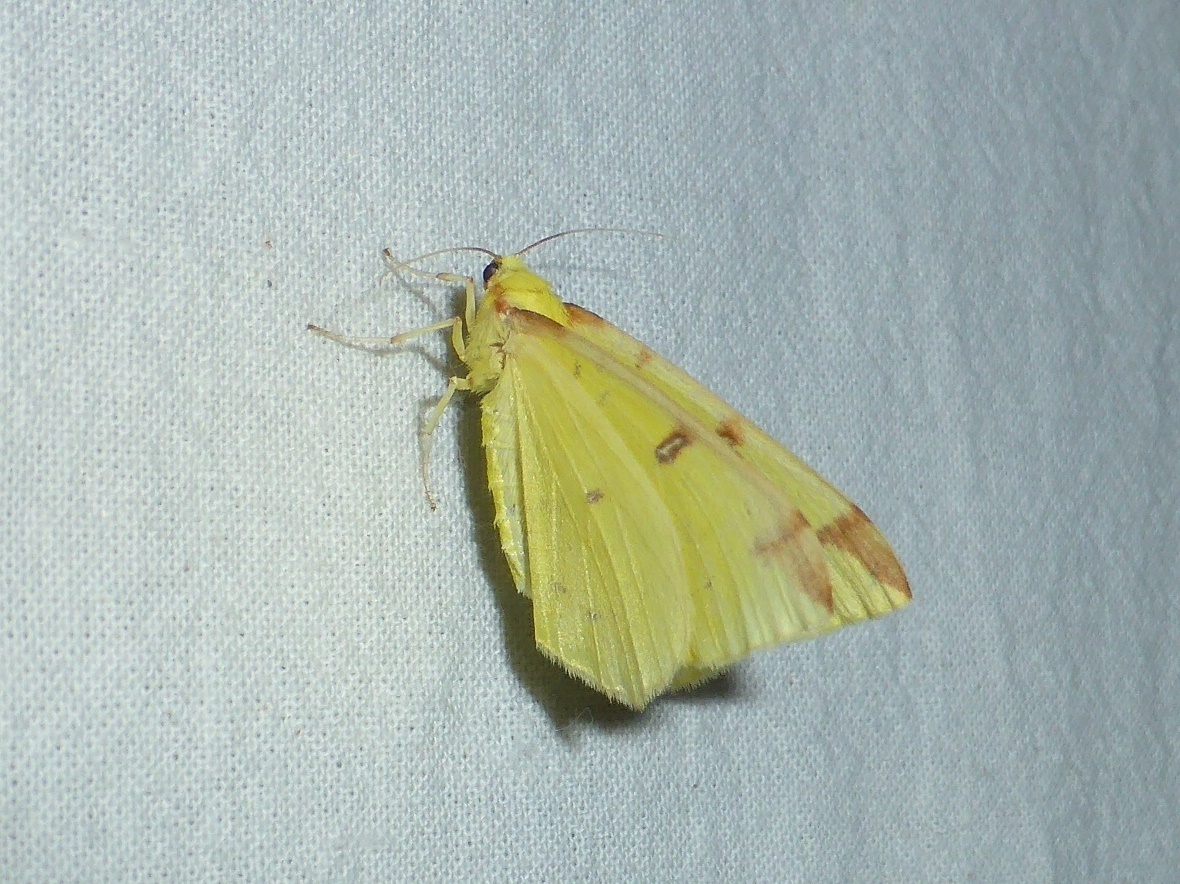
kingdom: Animalia
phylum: Arthropoda
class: Insecta
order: Lepidoptera
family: Geometridae
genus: Opisthograptis
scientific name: Opisthograptis luteolata
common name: Brimstone moth
